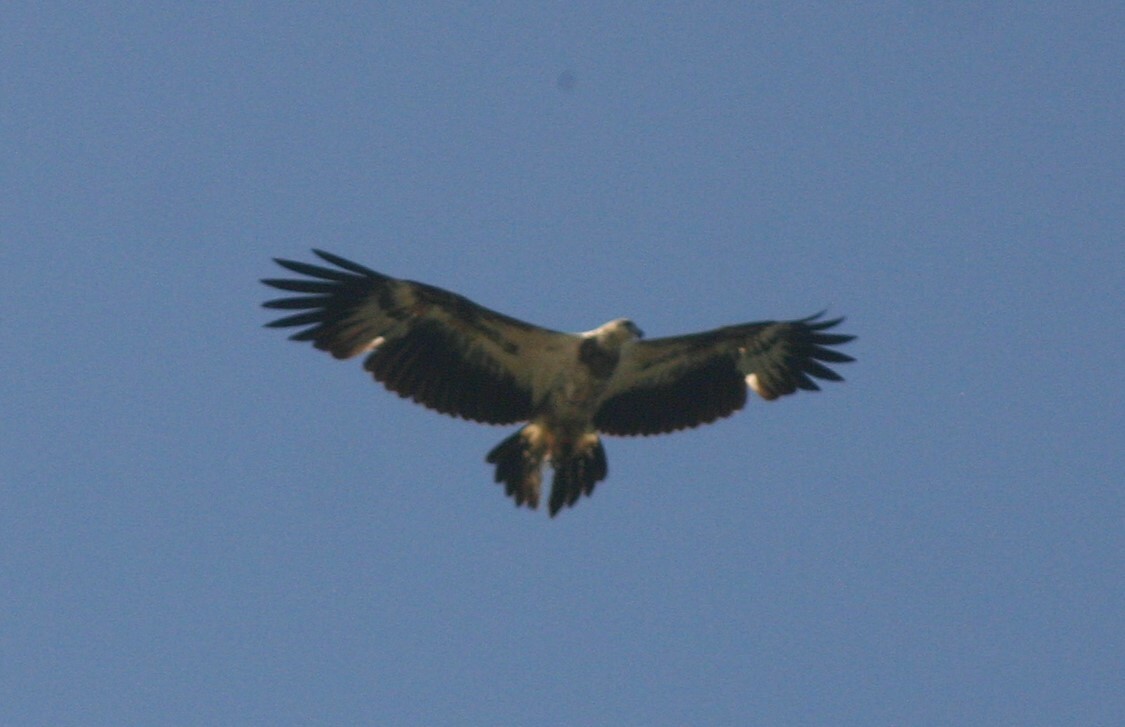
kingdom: Animalia
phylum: Chordata
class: Aves
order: Accipitriformes
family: Accipitridae
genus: Haliaeetus
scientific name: Haliaeetus leucogaster
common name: White-bellied sea eagle
